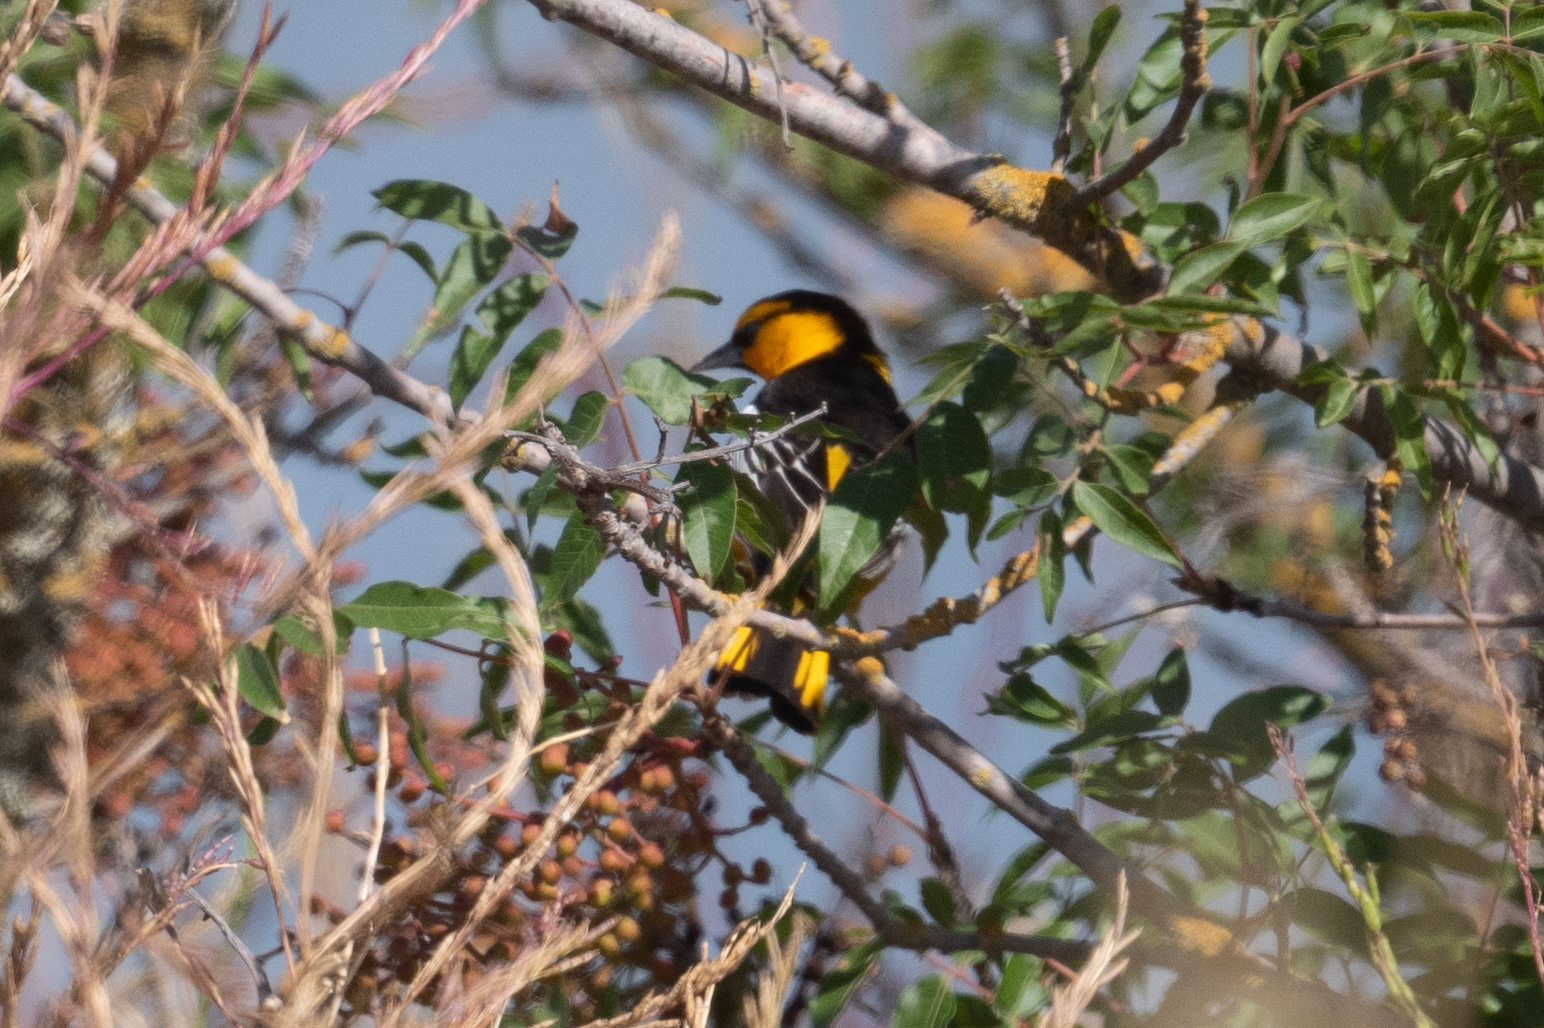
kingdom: Animalia
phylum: Chordata
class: Aves
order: Passeriformes
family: Icteridae
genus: Icterus
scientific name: Icterus bullockii
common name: Bullock's oriole
